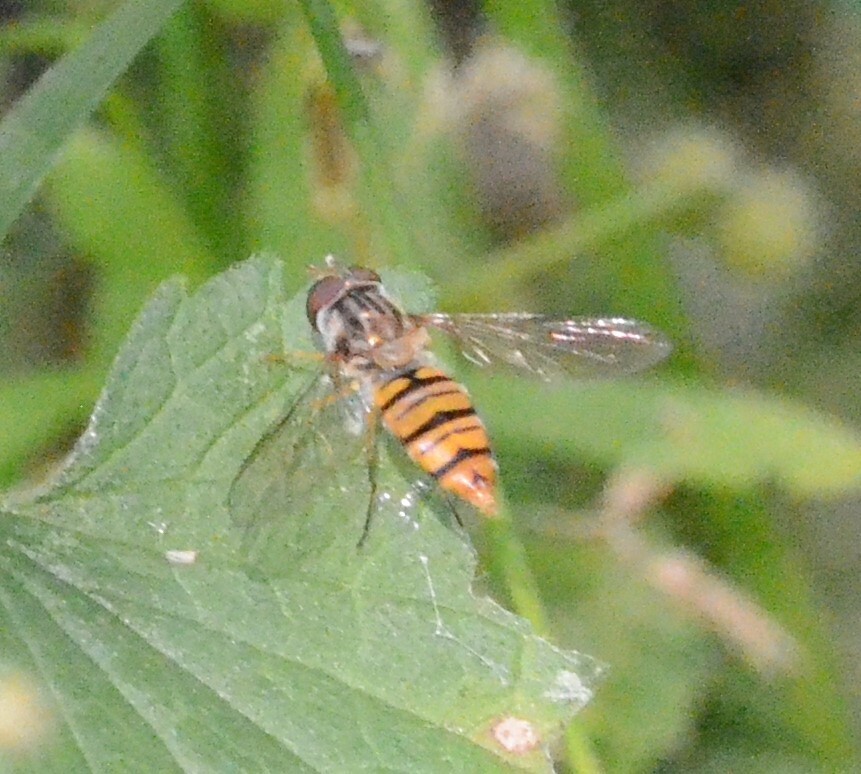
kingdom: Animalia
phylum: Arthropoda
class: Insecta
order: Diptera
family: Syrphidae
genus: Episyrphus
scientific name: Episyrphus balteatus
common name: Marmalade hoverfly
